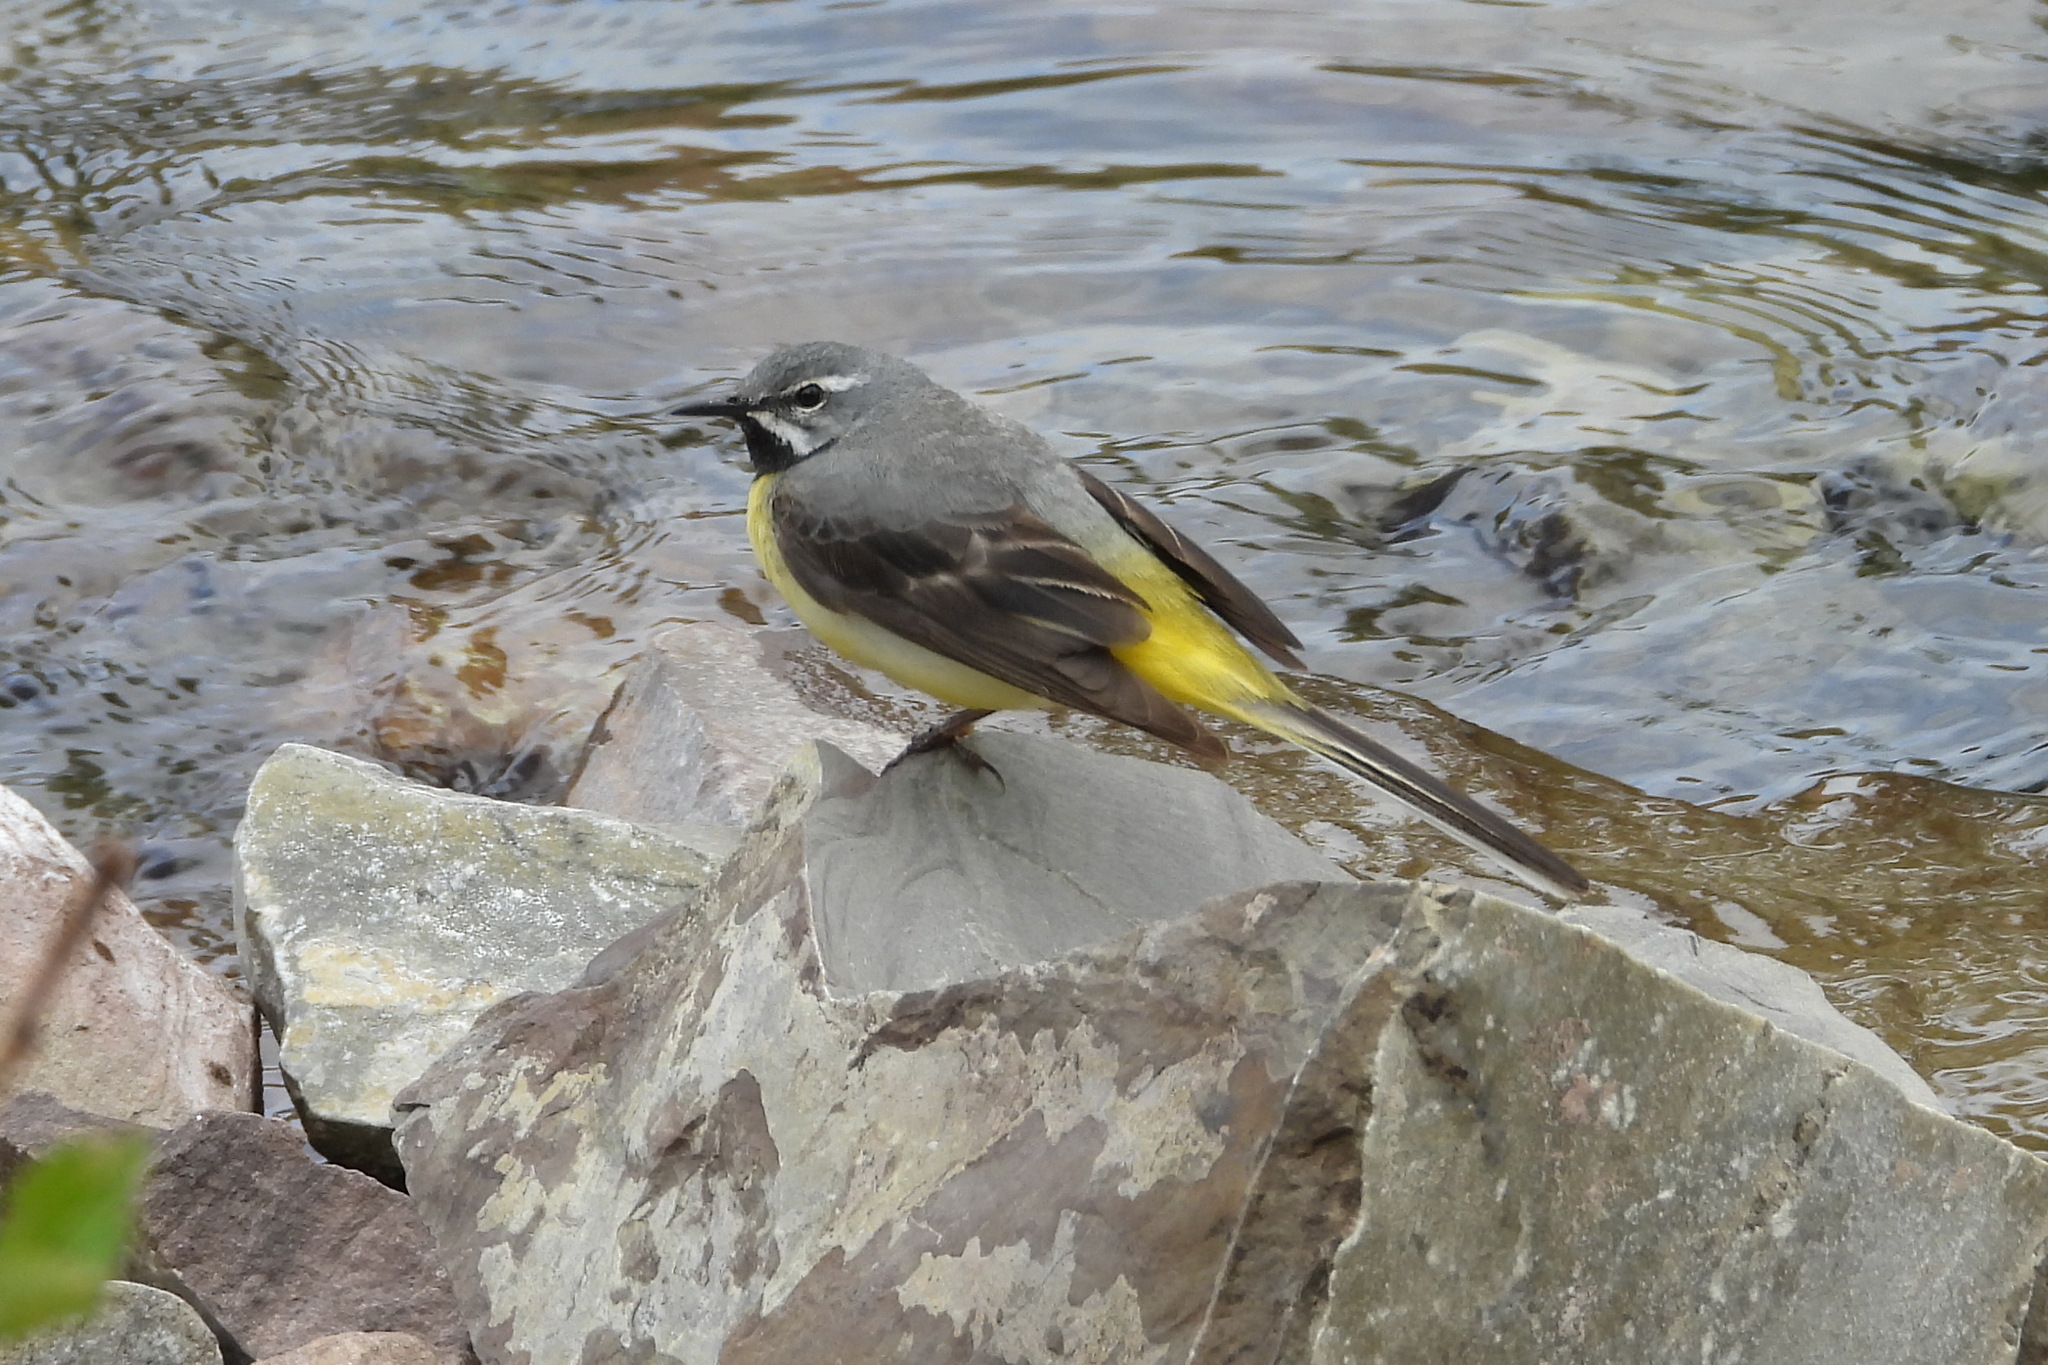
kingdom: Animalia
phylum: Chordata
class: Aves
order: Passeriformes
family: Motacillidae
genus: Motacilla
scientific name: Motacilla cinerea
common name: Grey wagtail
